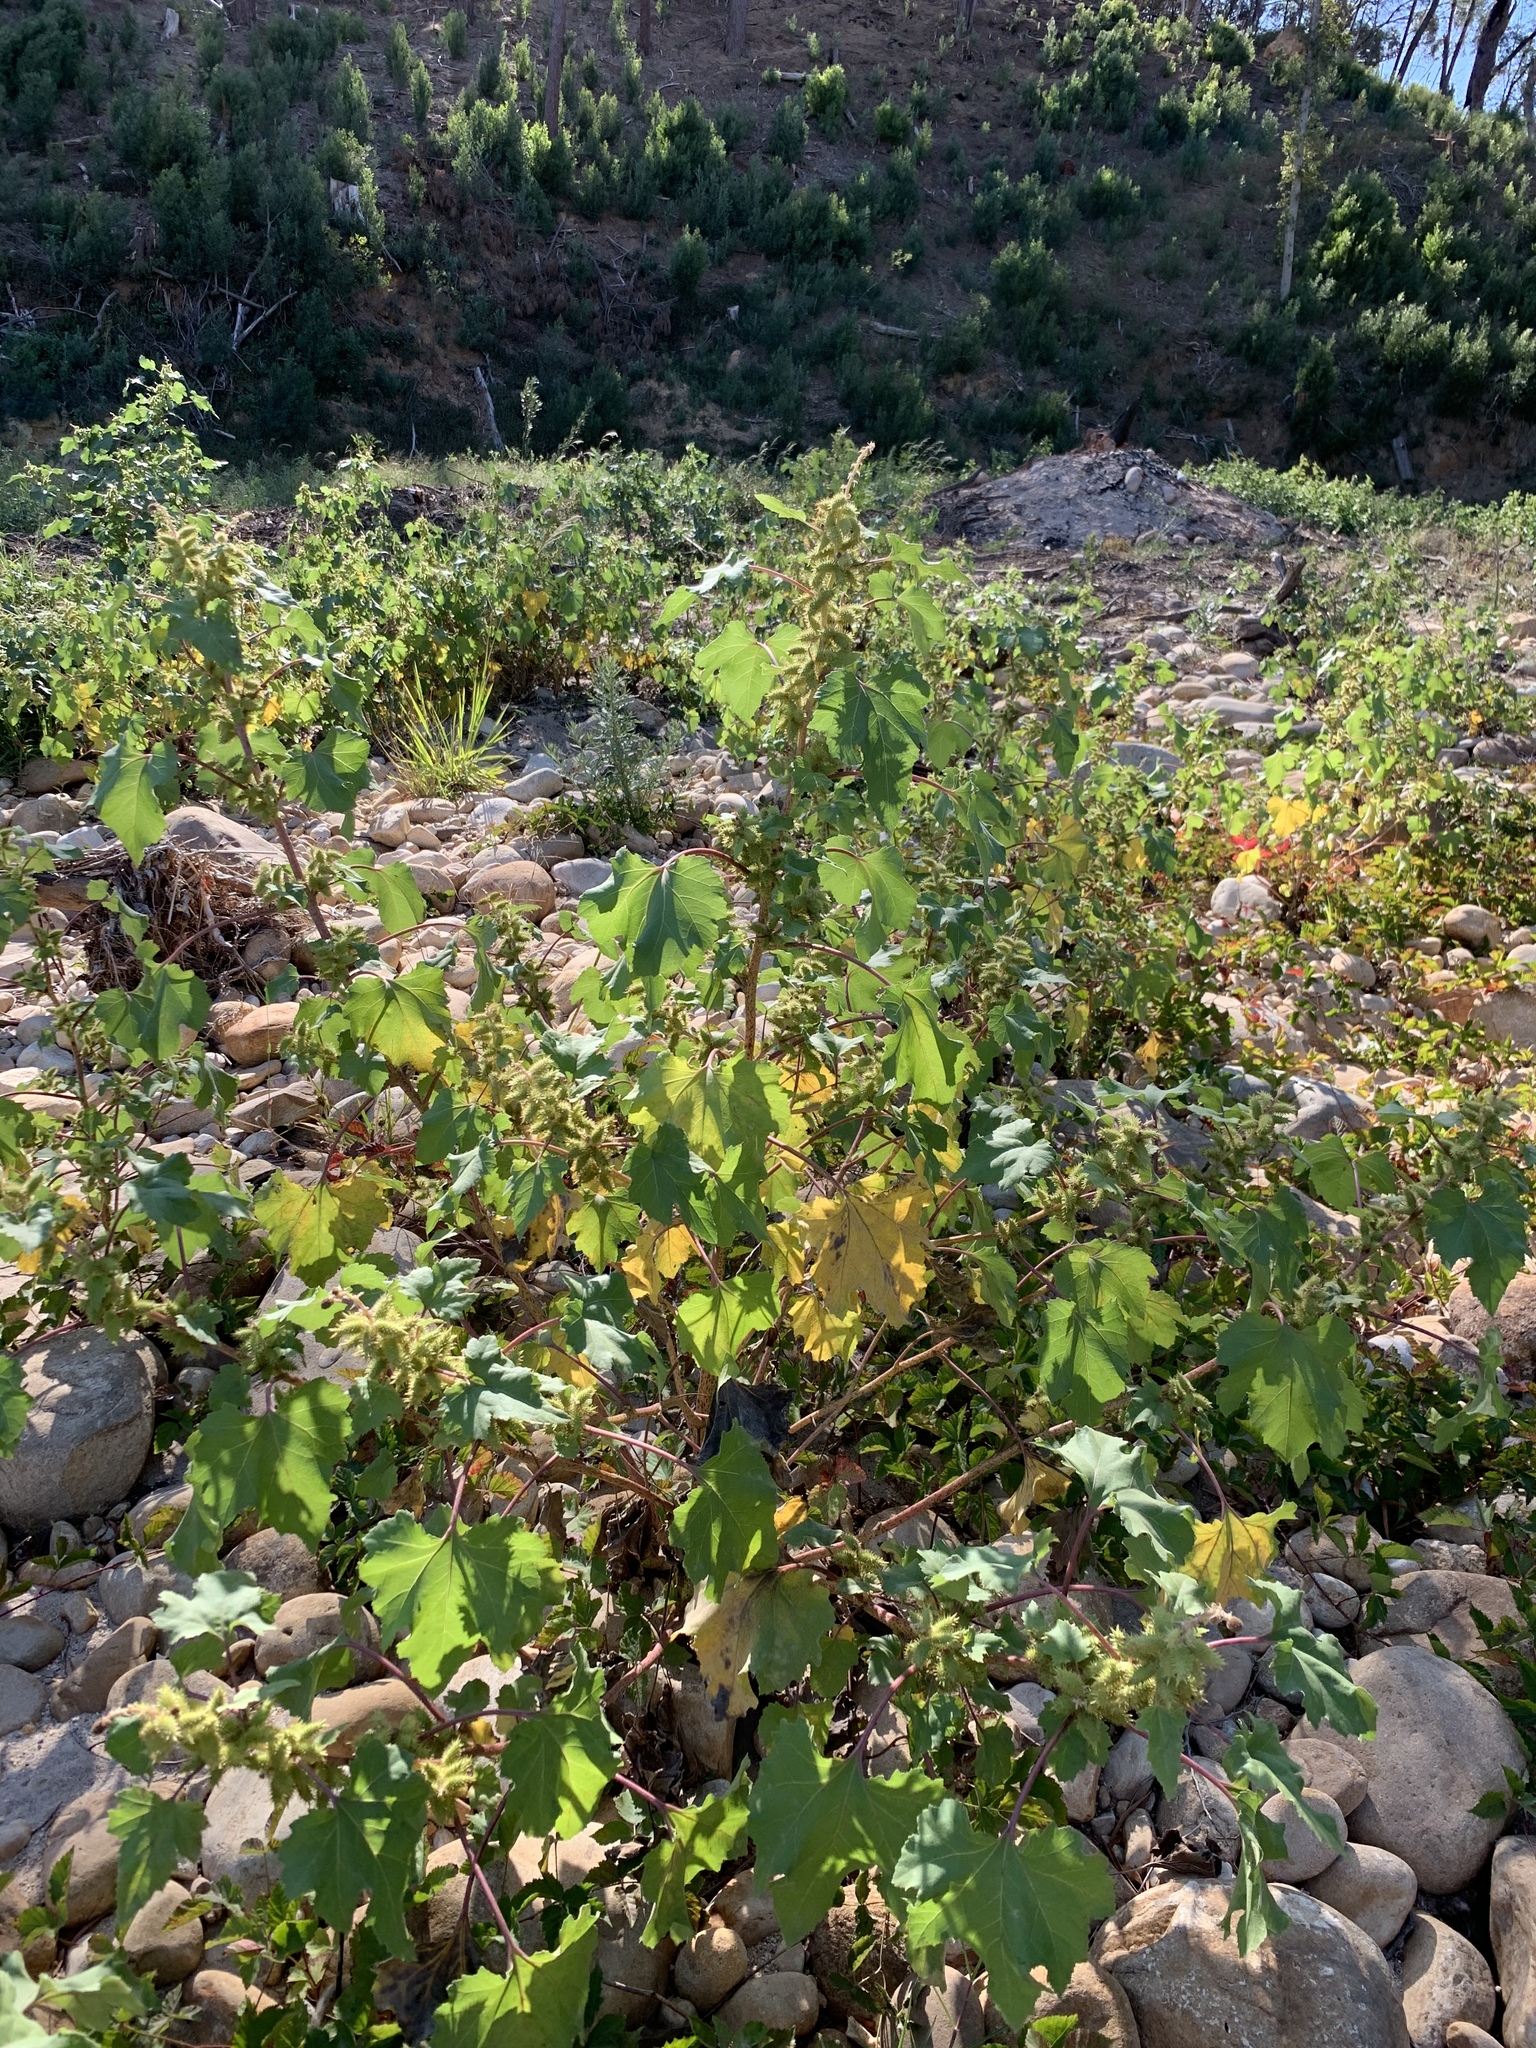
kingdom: Plantae
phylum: Tracheophyta
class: Magnoliopsida
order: Asterales
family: Asteraceae
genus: Xanthium
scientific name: Xanthium strumarium
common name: Rough cocklebur
